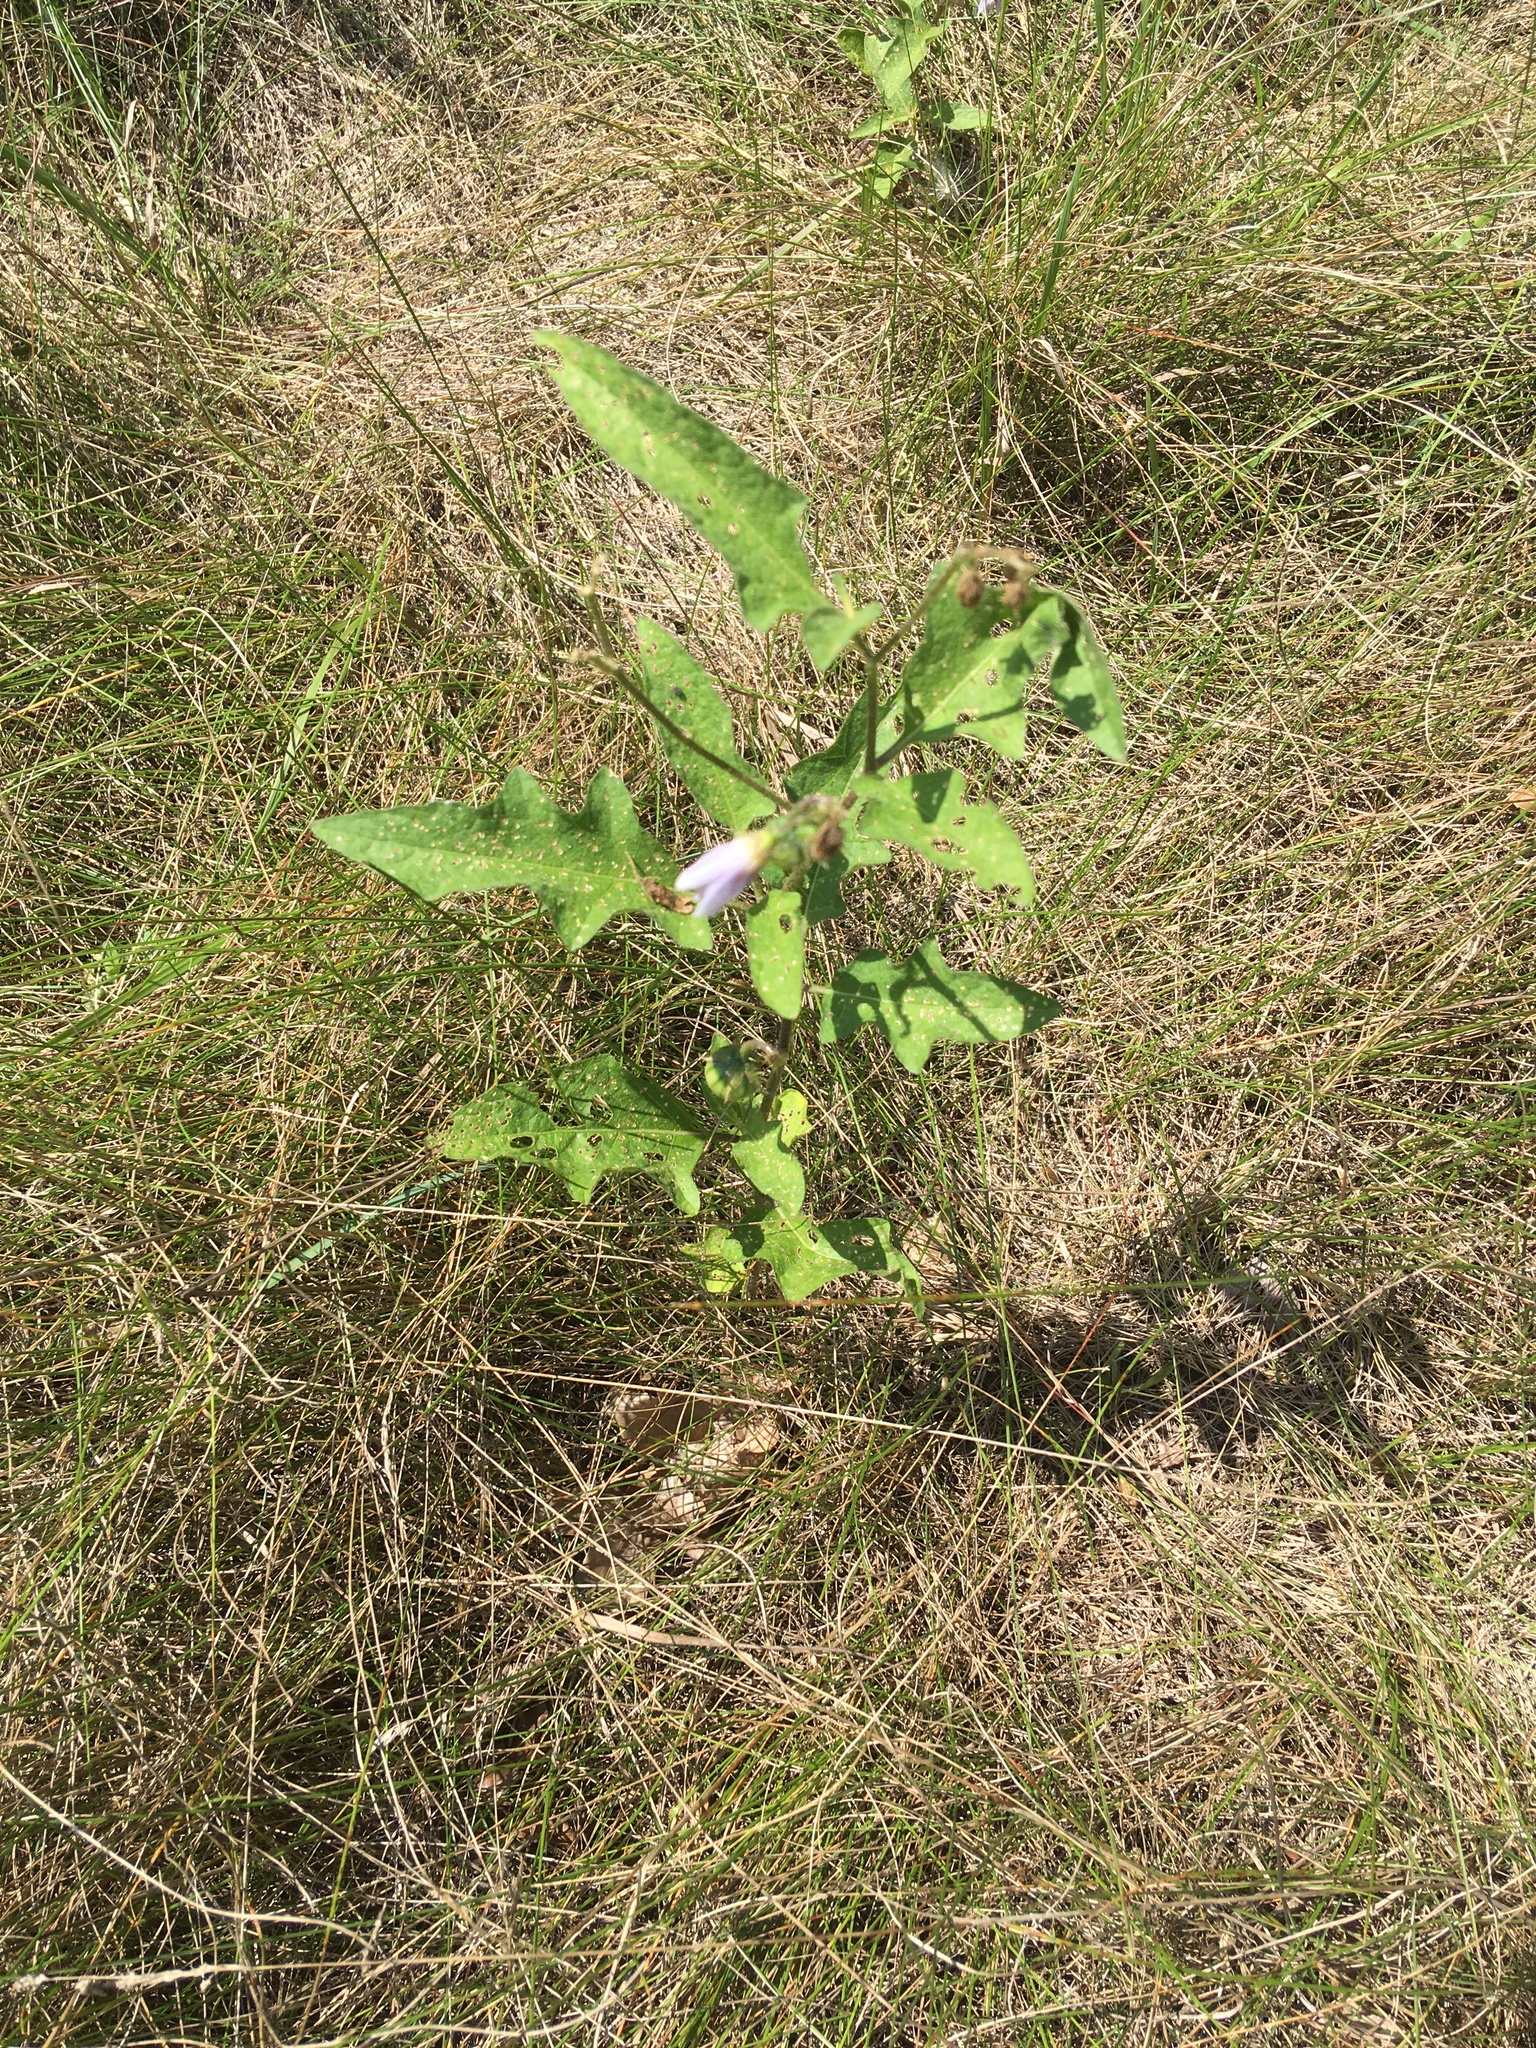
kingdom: Plantae
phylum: Tracheophyta
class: Magnoliopsida
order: Solanales
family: Solanaceae
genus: Solanum
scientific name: Solanum carolinense
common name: Horse-nettle
